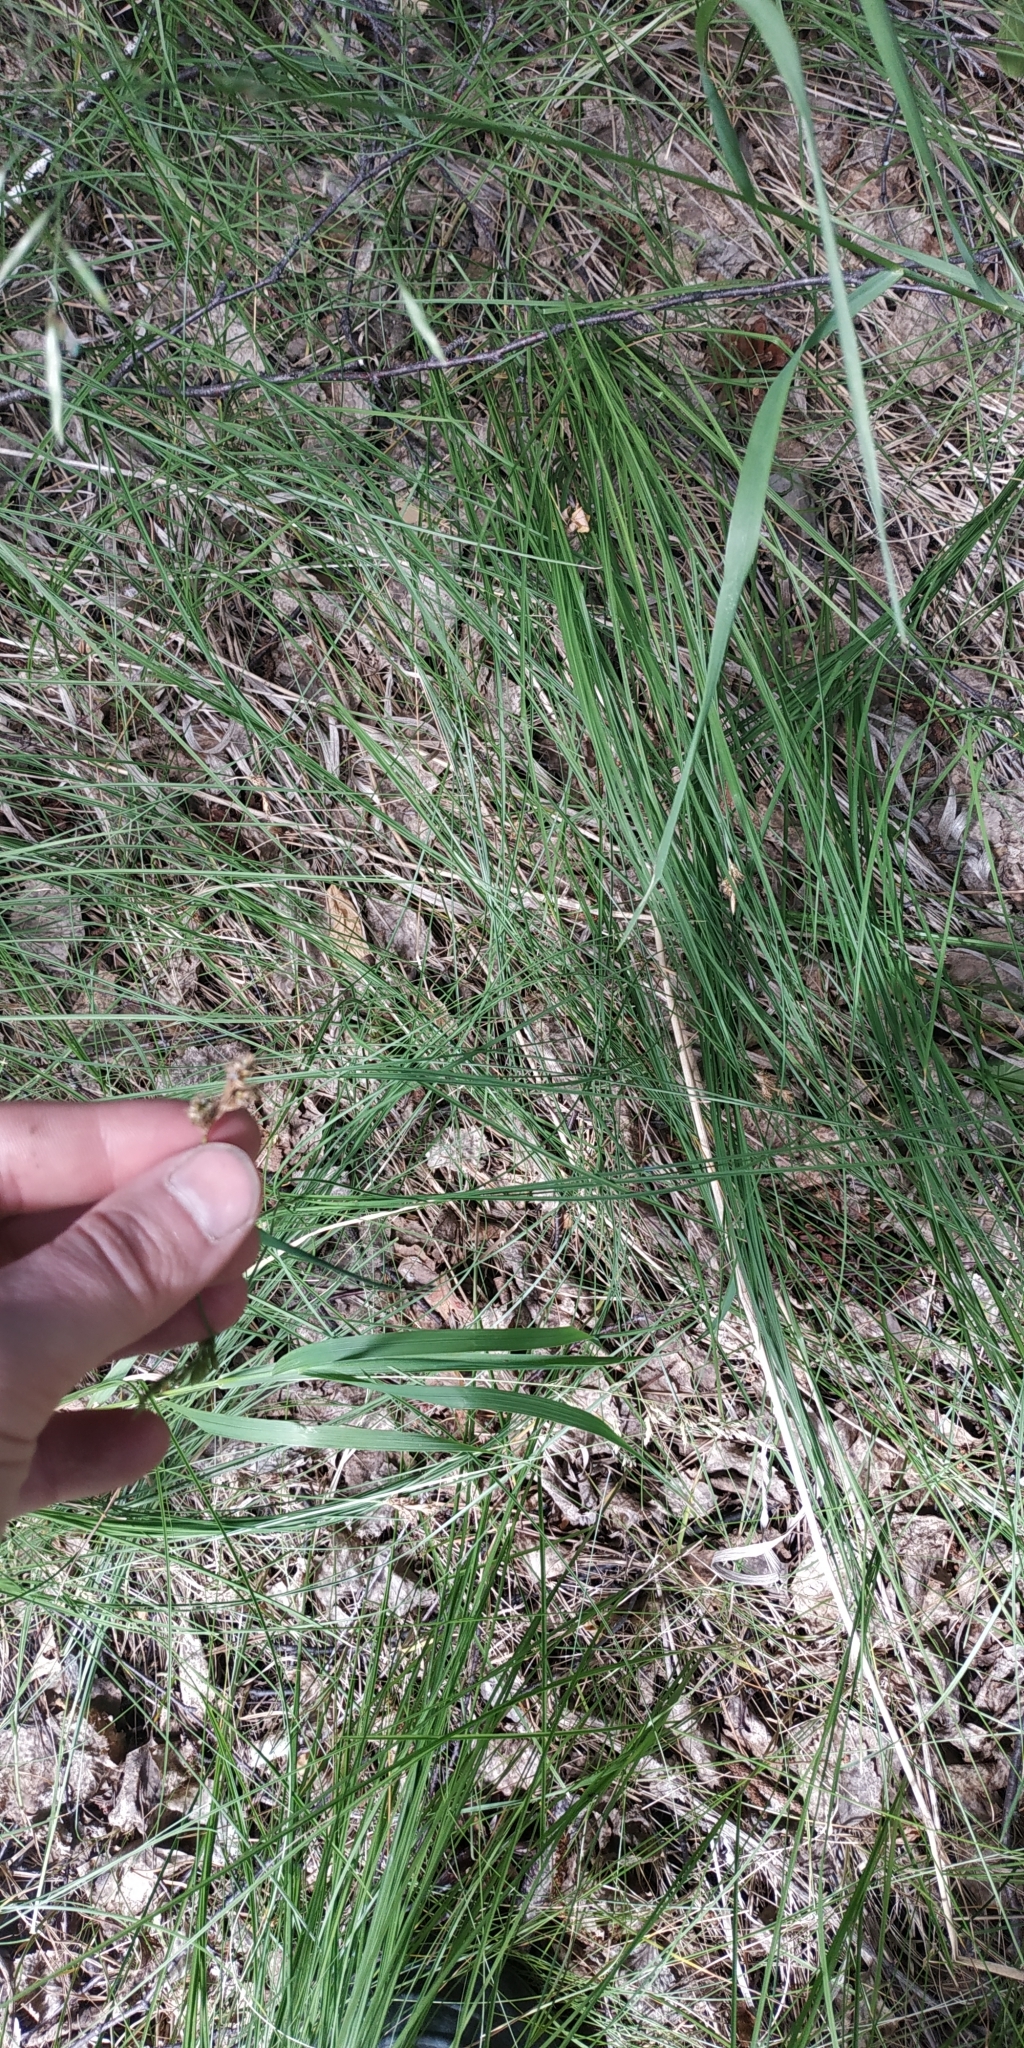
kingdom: Plantae
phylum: Tracheophyta
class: Liliopsida
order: Poales
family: Cyperaceae
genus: Carex
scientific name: Carex canescens
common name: White sedge
